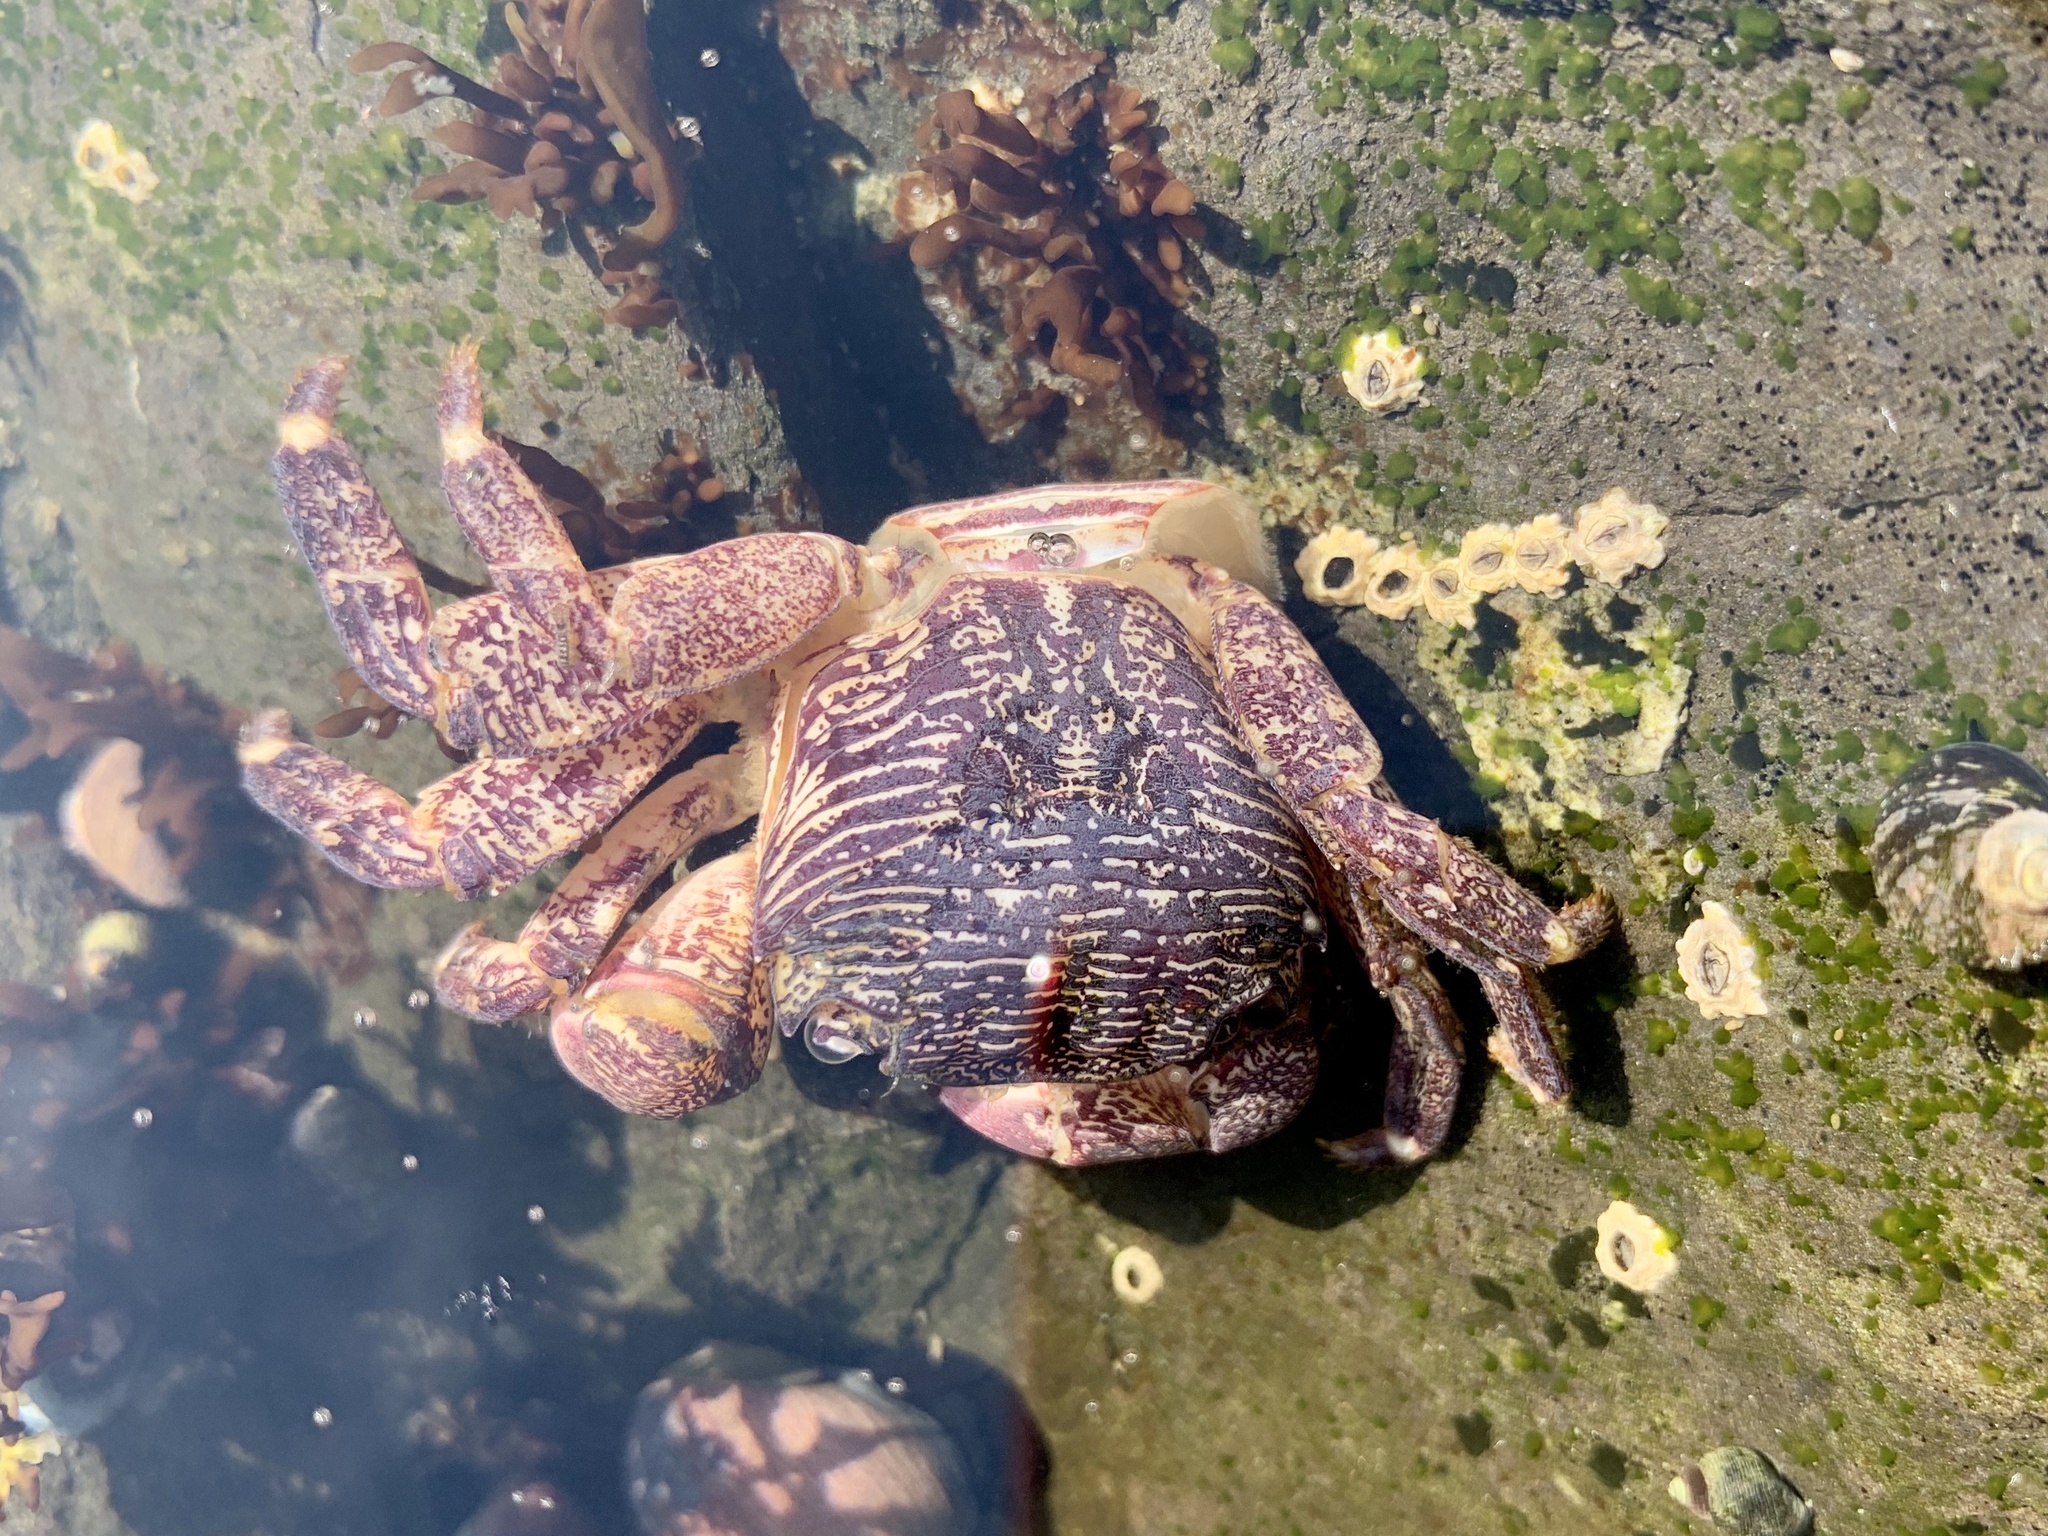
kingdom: Animalia
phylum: Arthropoda
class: Malacostraca
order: Decapoda
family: Grapsidae
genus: Pachygrapsus
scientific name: Pachygrapsus crassipes
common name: Striped shore crab
